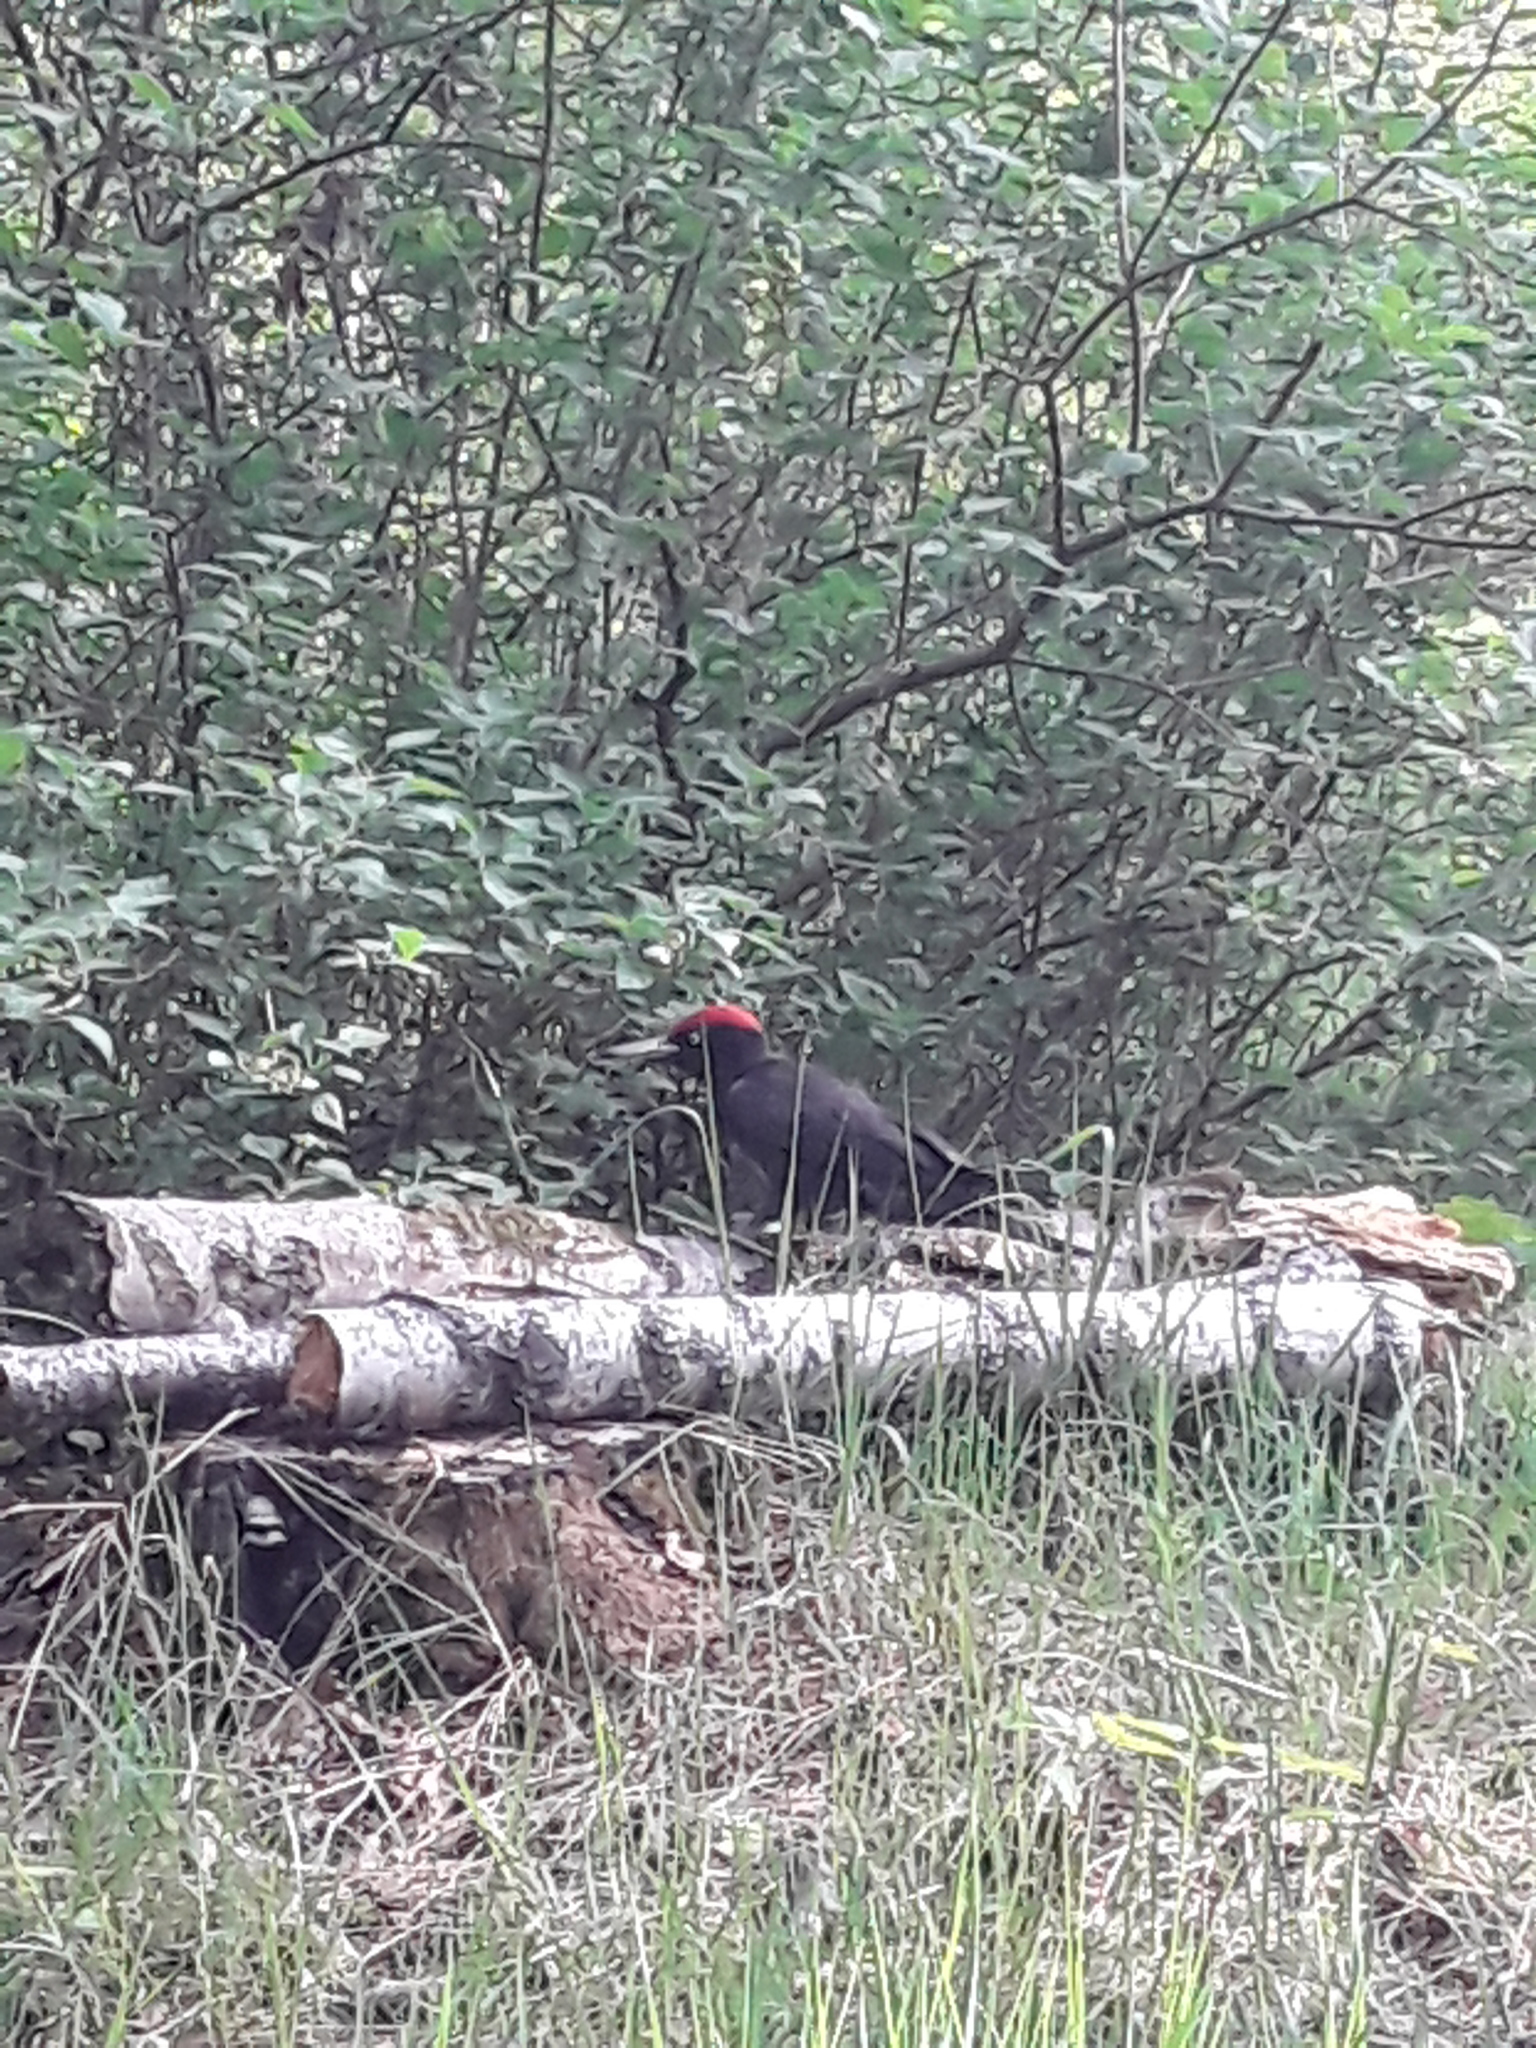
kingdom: Animalia
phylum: Chordata
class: Aves
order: Piciformes
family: Picidae
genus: Dryocopus
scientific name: Dryocopus martius
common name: Black woodpecker
